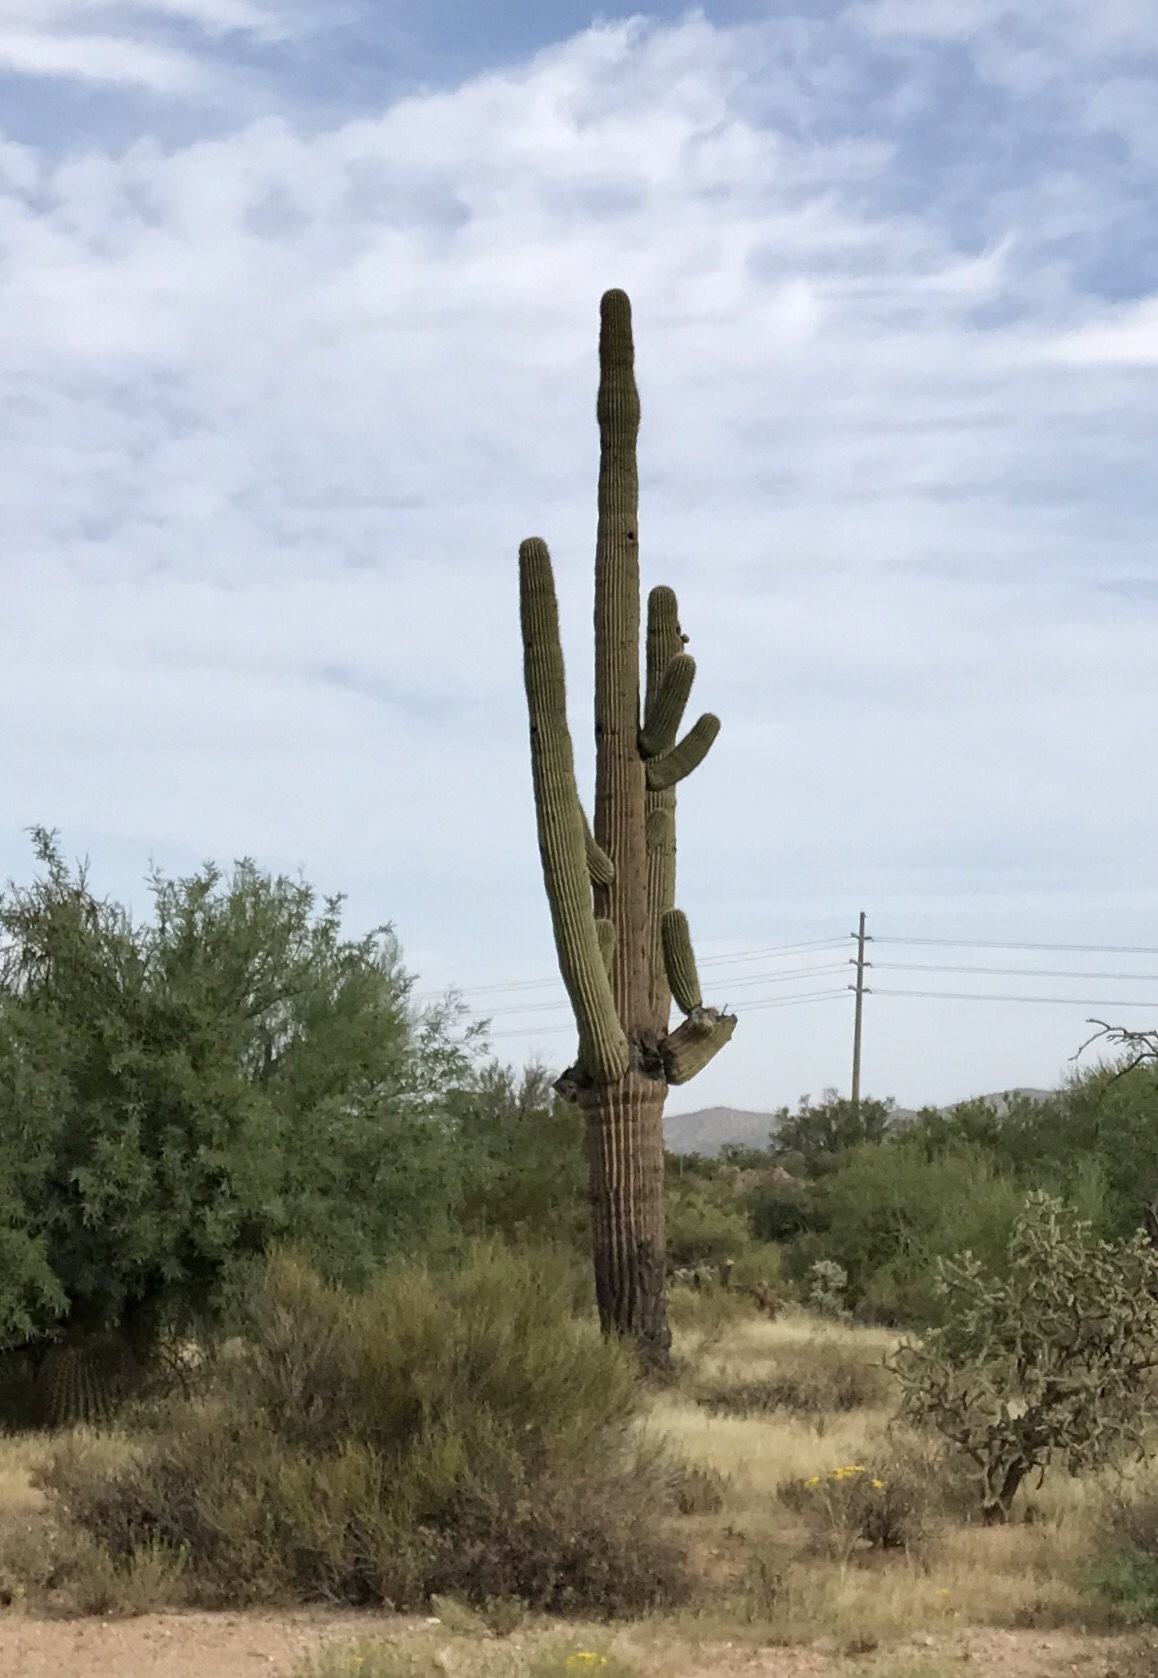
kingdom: Plantae
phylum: Tracheophyta
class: Magnoliopsida
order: Caryophyllales
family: Cactaceae
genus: Carnegiea
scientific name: Carnegiea gigantea
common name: Saguaro
